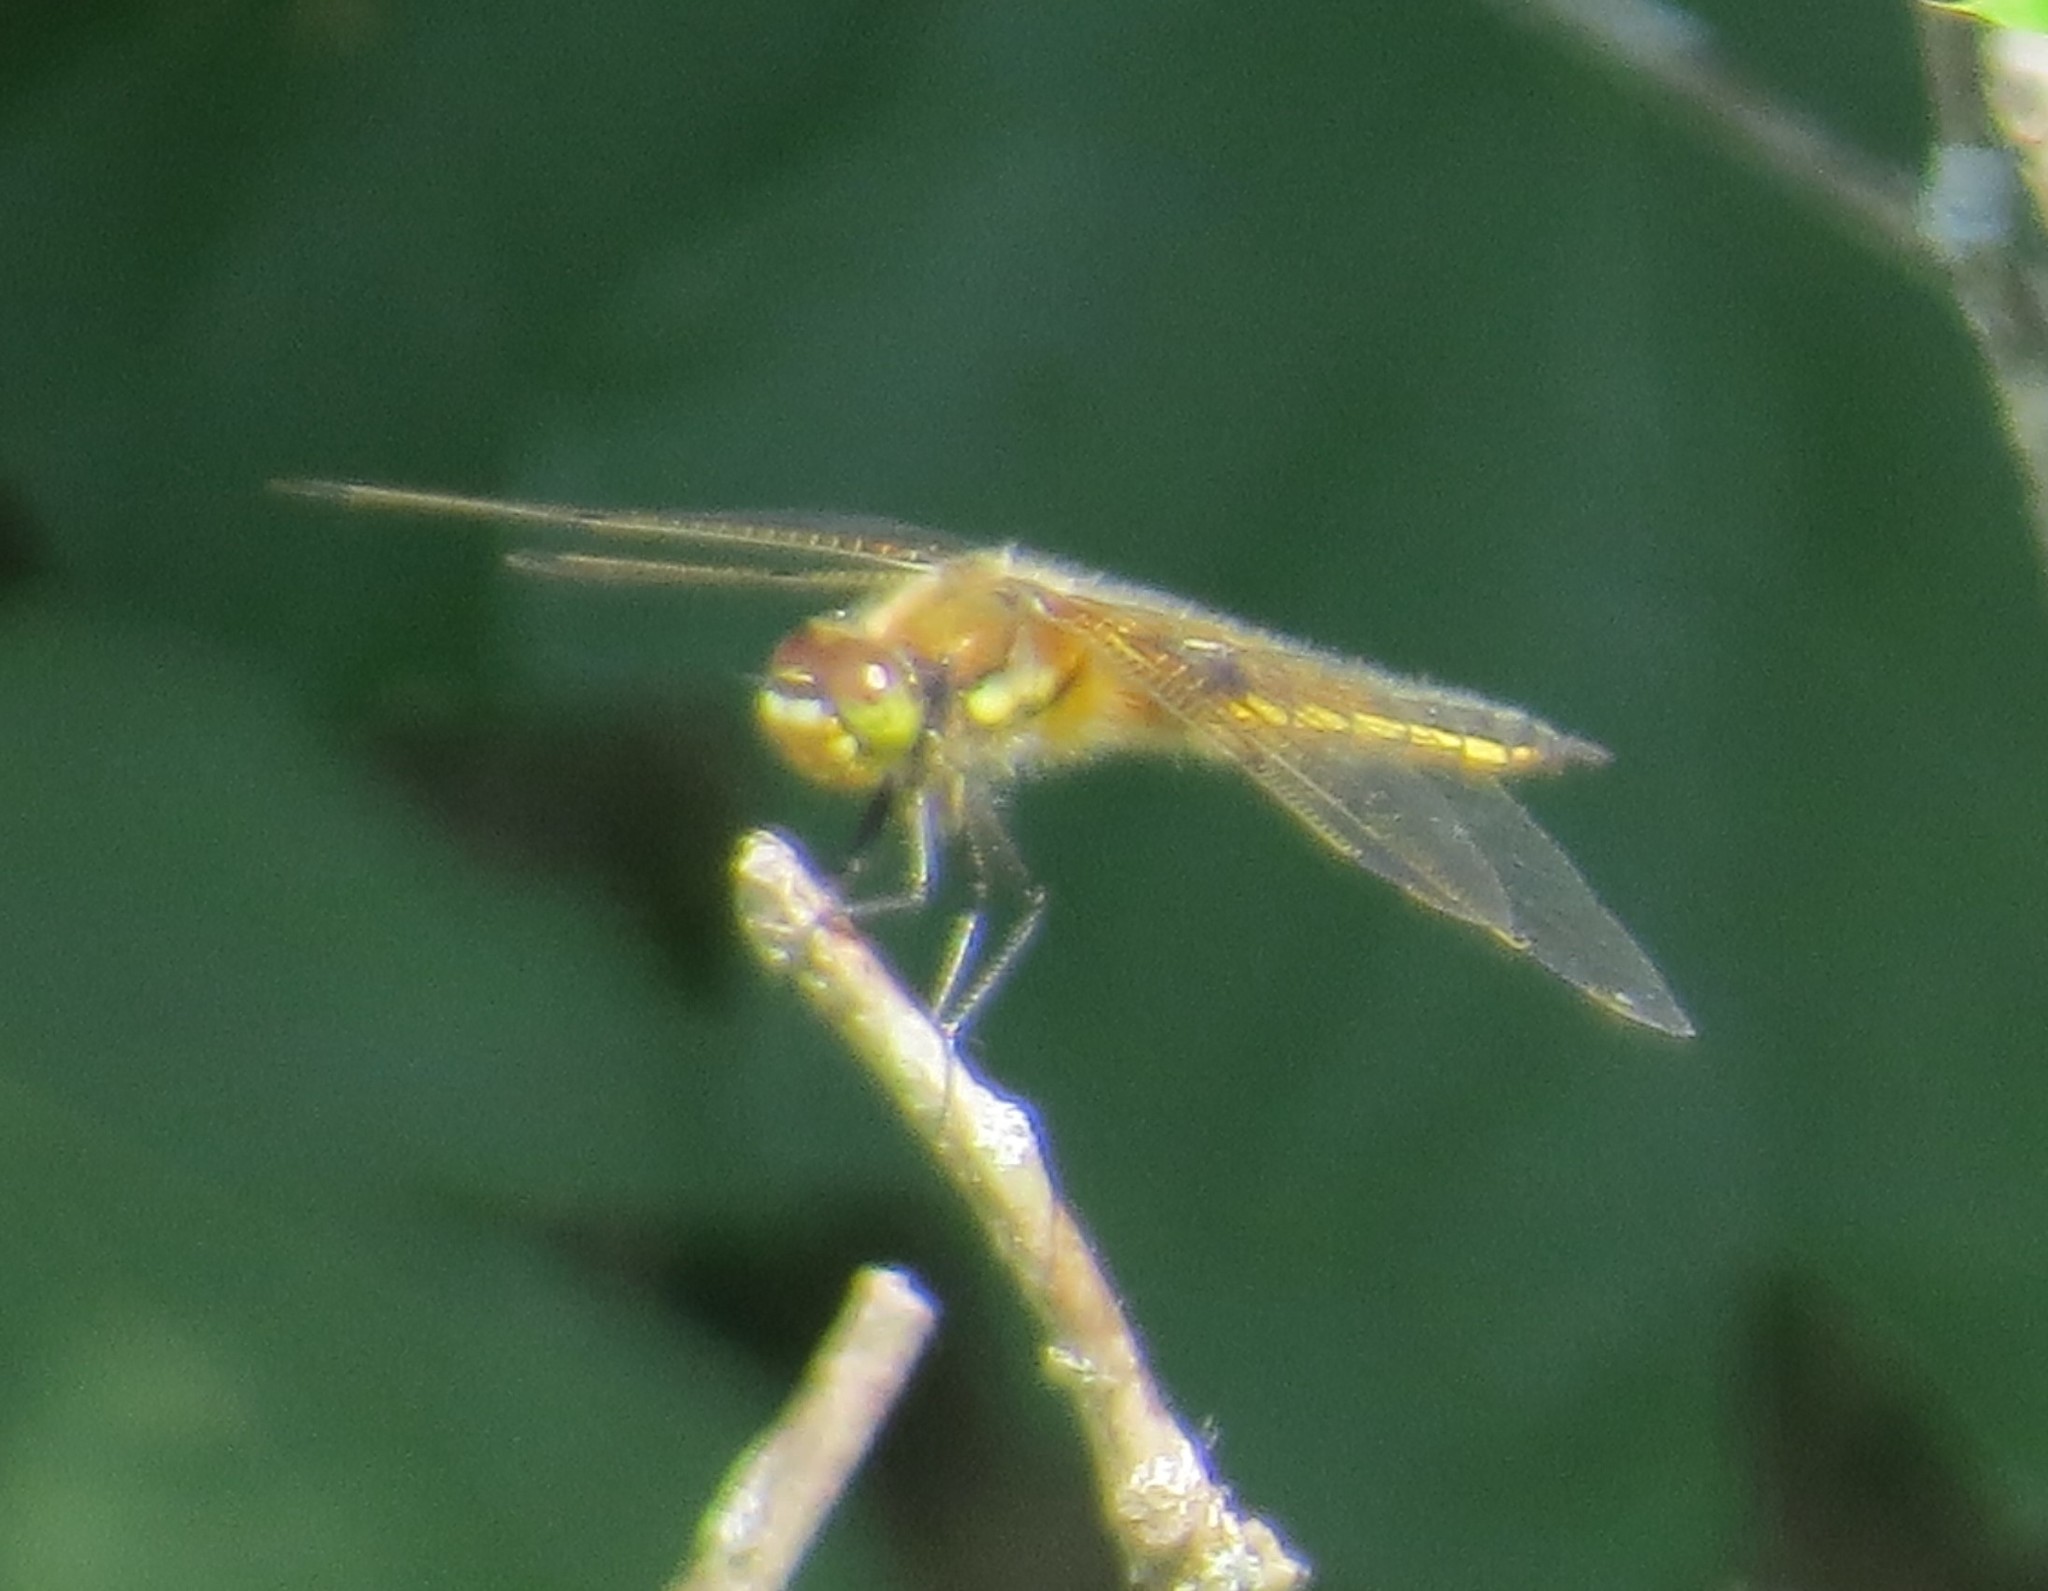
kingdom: Animalia
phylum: Arthropoda
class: Insecta
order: Odonata
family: Libellulidae
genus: Libellula
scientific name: Libellula quadrimaculata
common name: Four-spotted chaser
